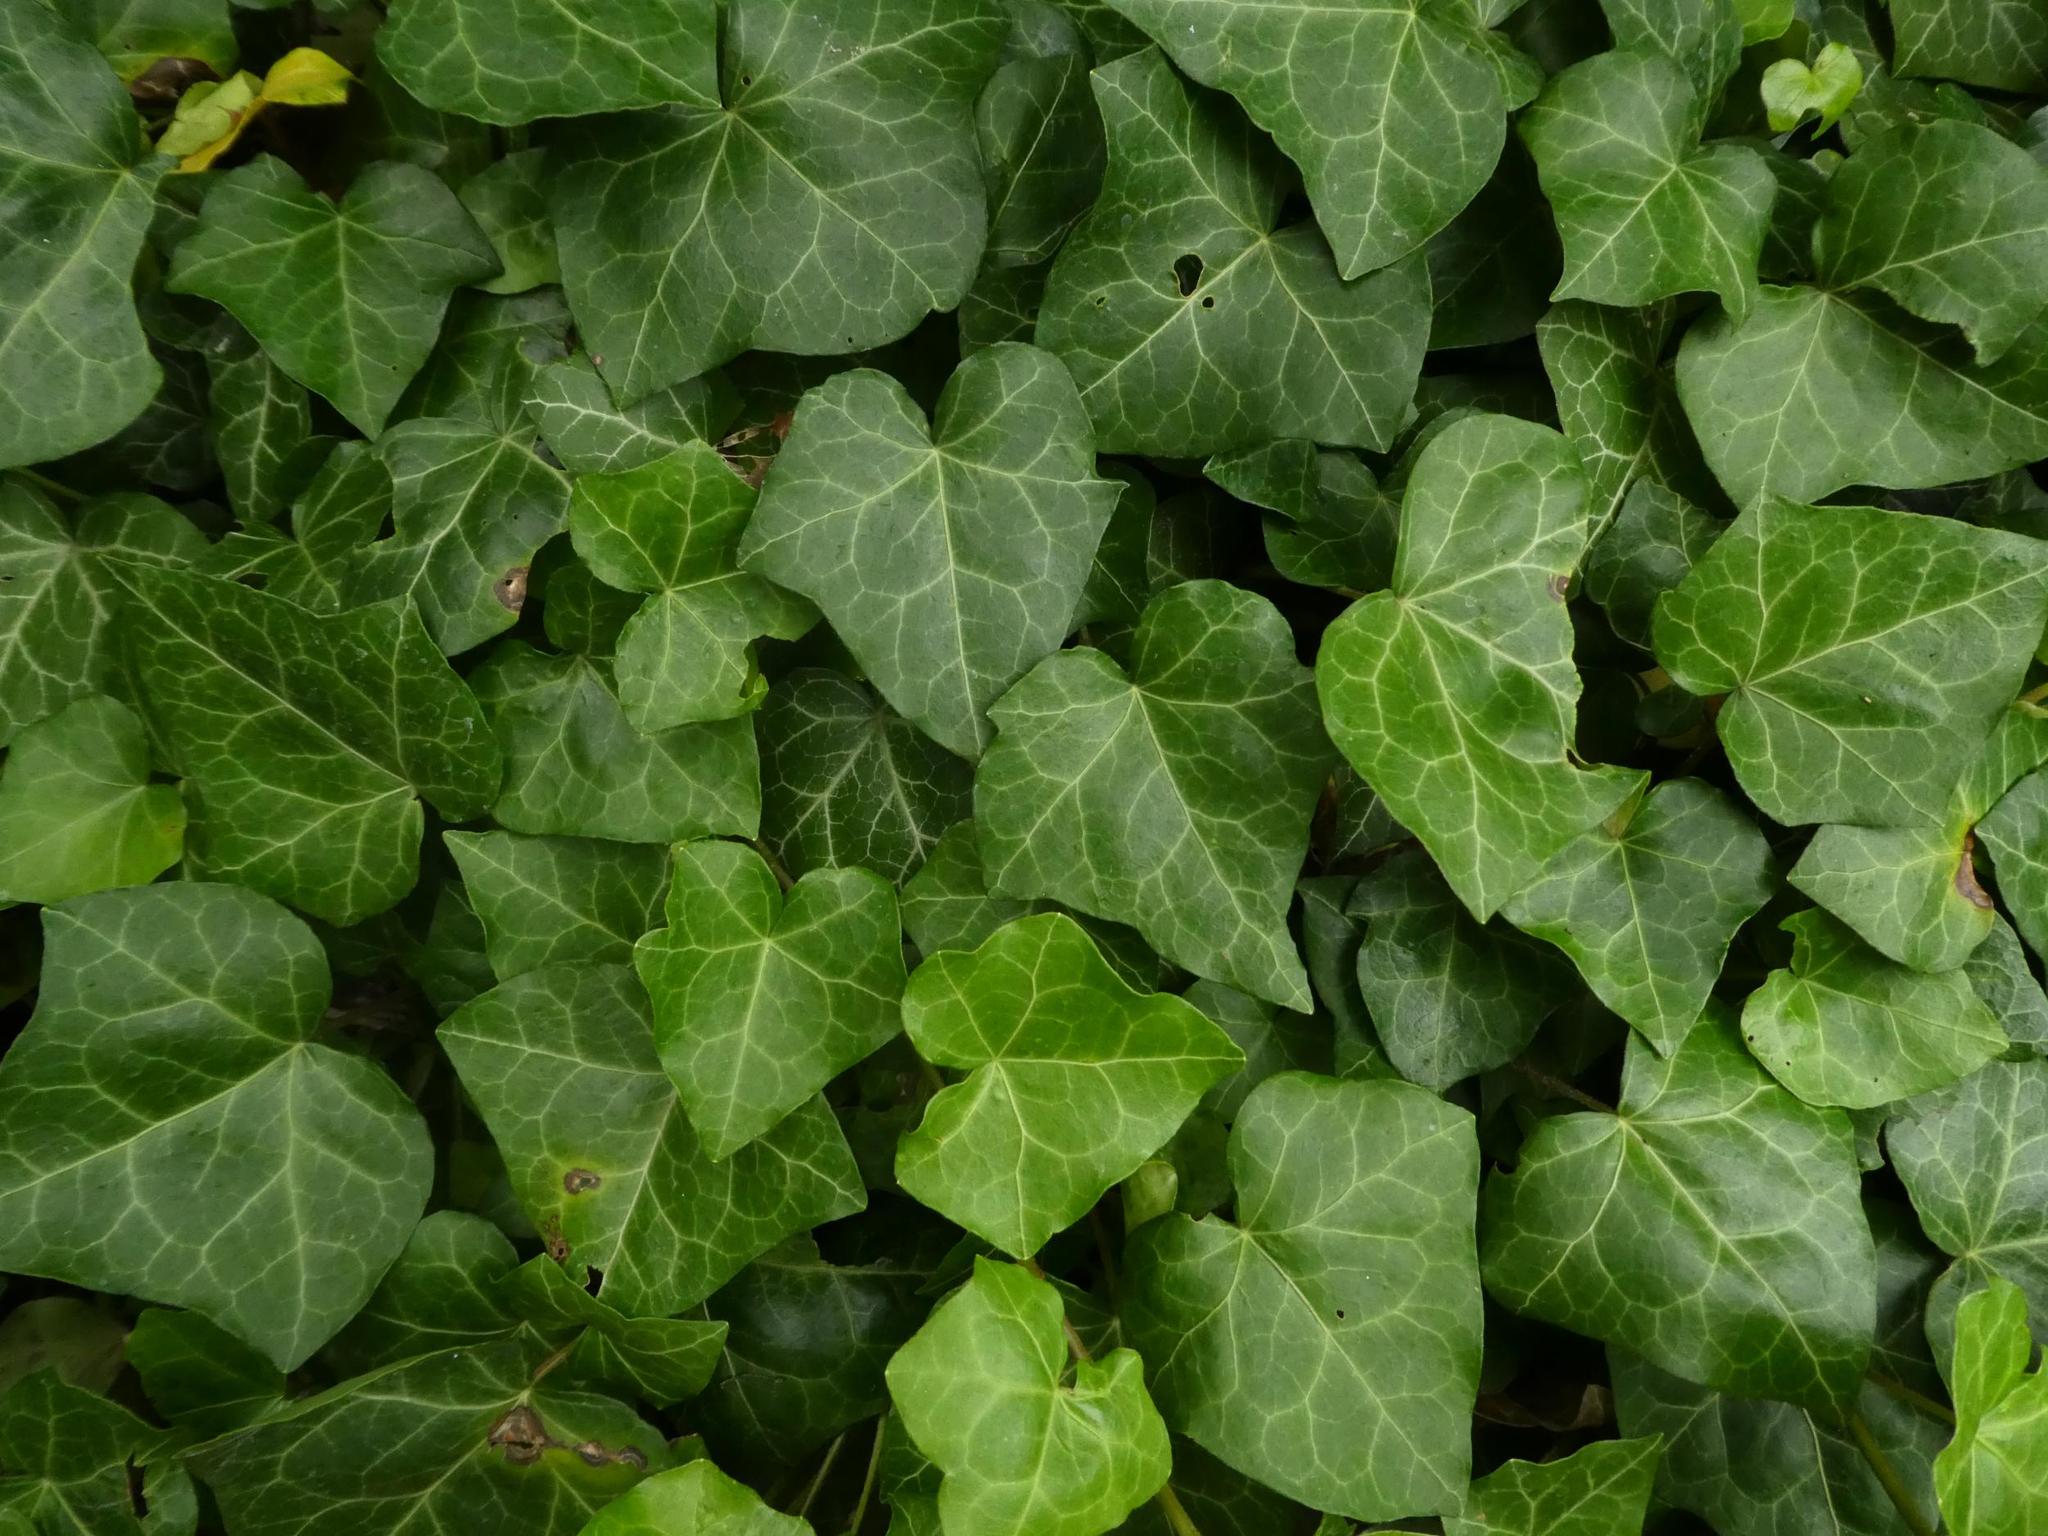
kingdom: Plantae
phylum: Tracheophyta
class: Magnoliopsida
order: Apiales
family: Araliaceae
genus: Hedera
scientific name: Hedera helix
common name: Ivy
